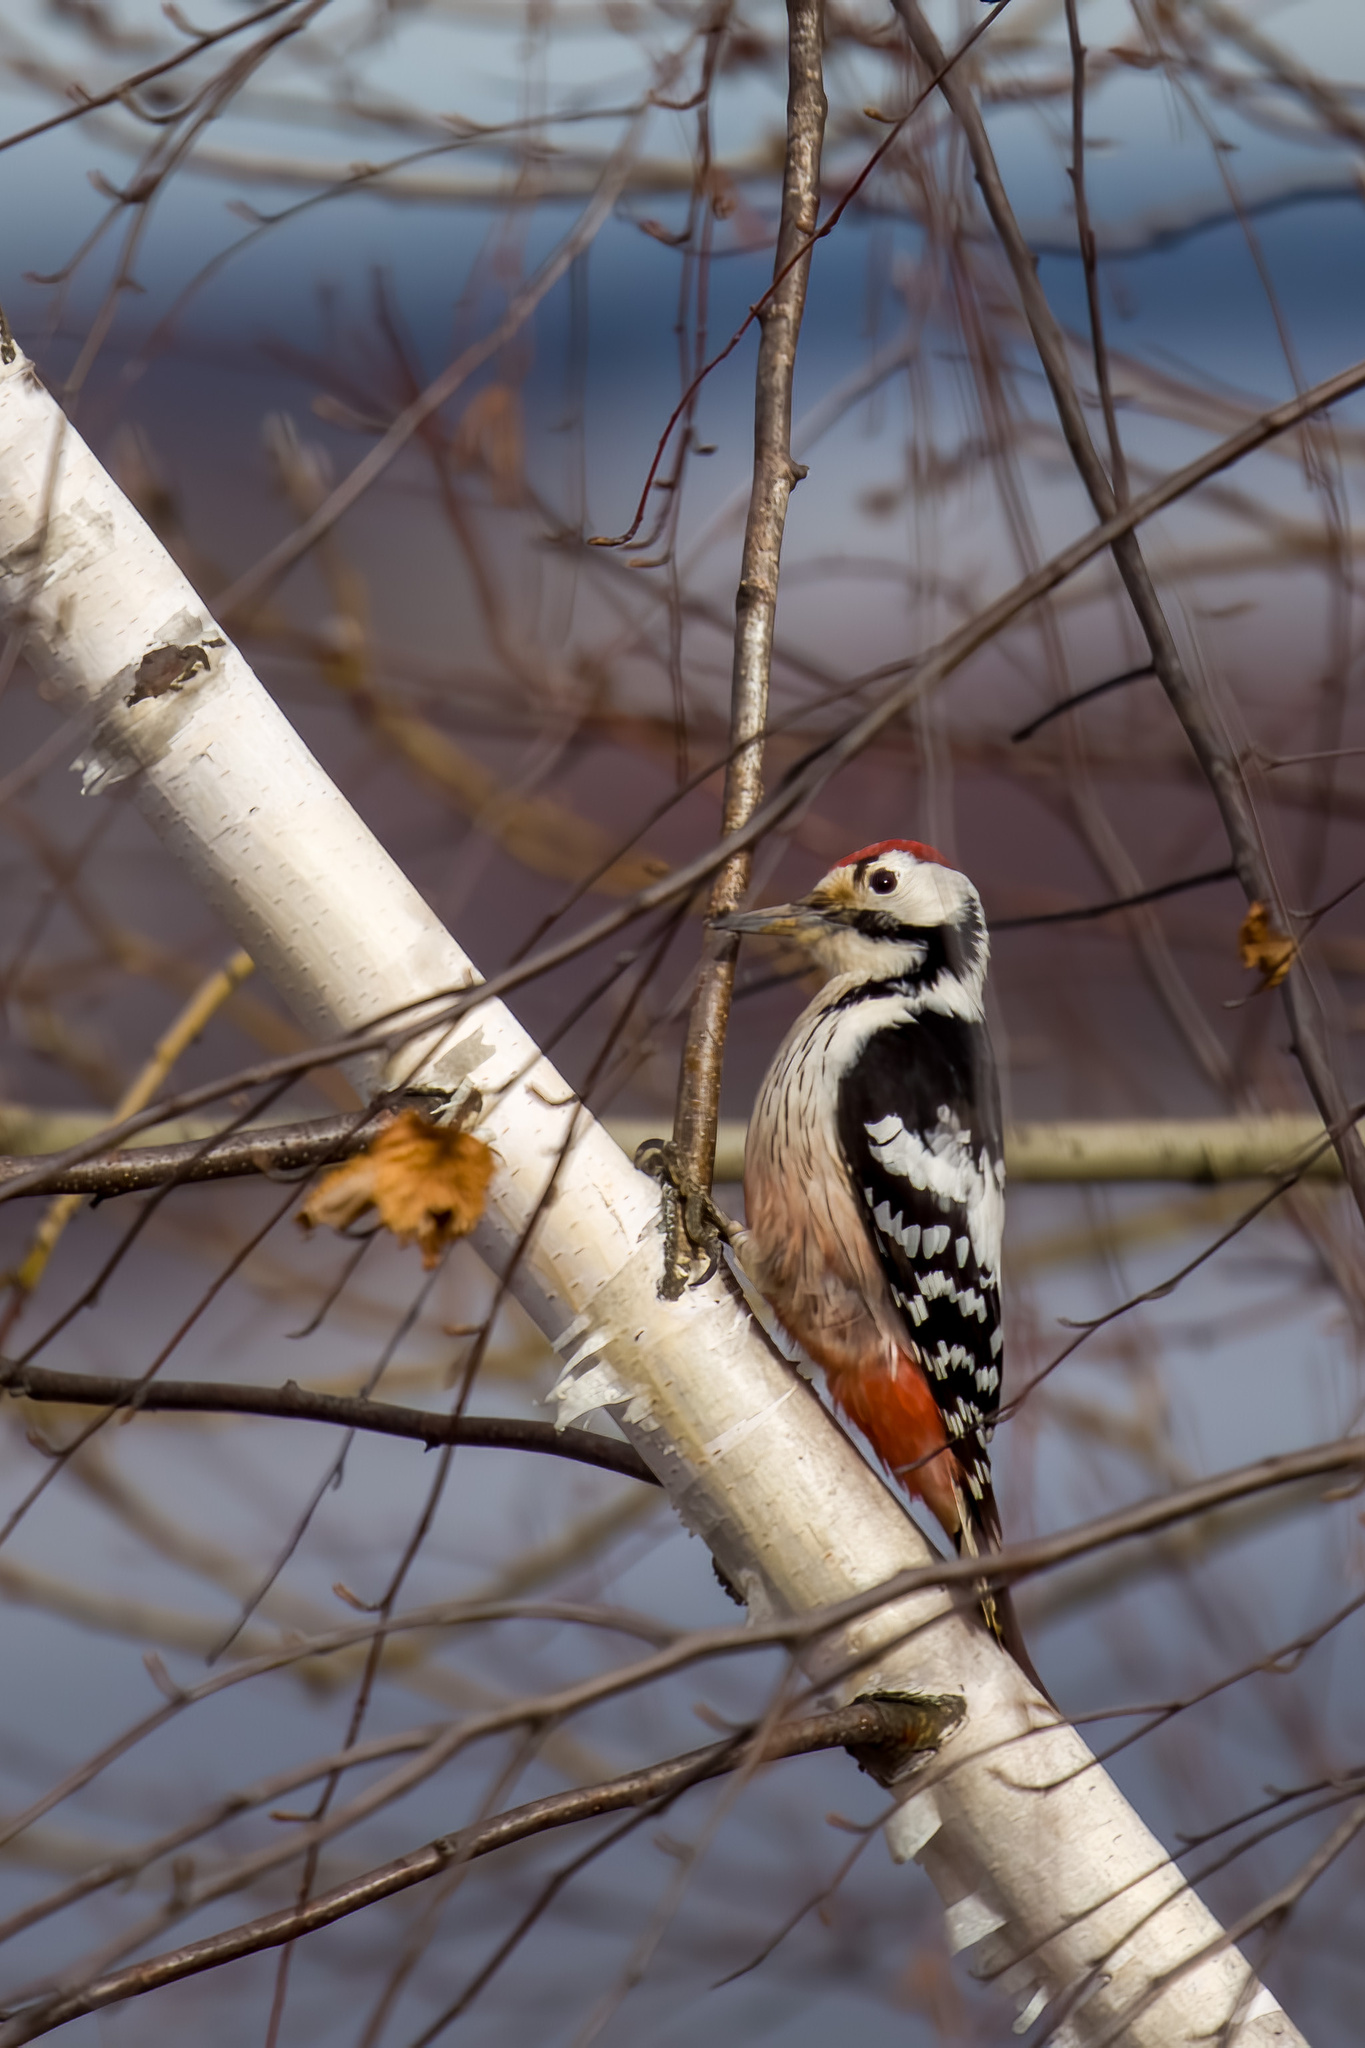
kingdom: Animalia
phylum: Chordata
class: Aves
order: Piciformes
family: Picidae
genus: Dendrocopos
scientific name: Dendrocopos leucotos
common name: White-backed woodpecker
